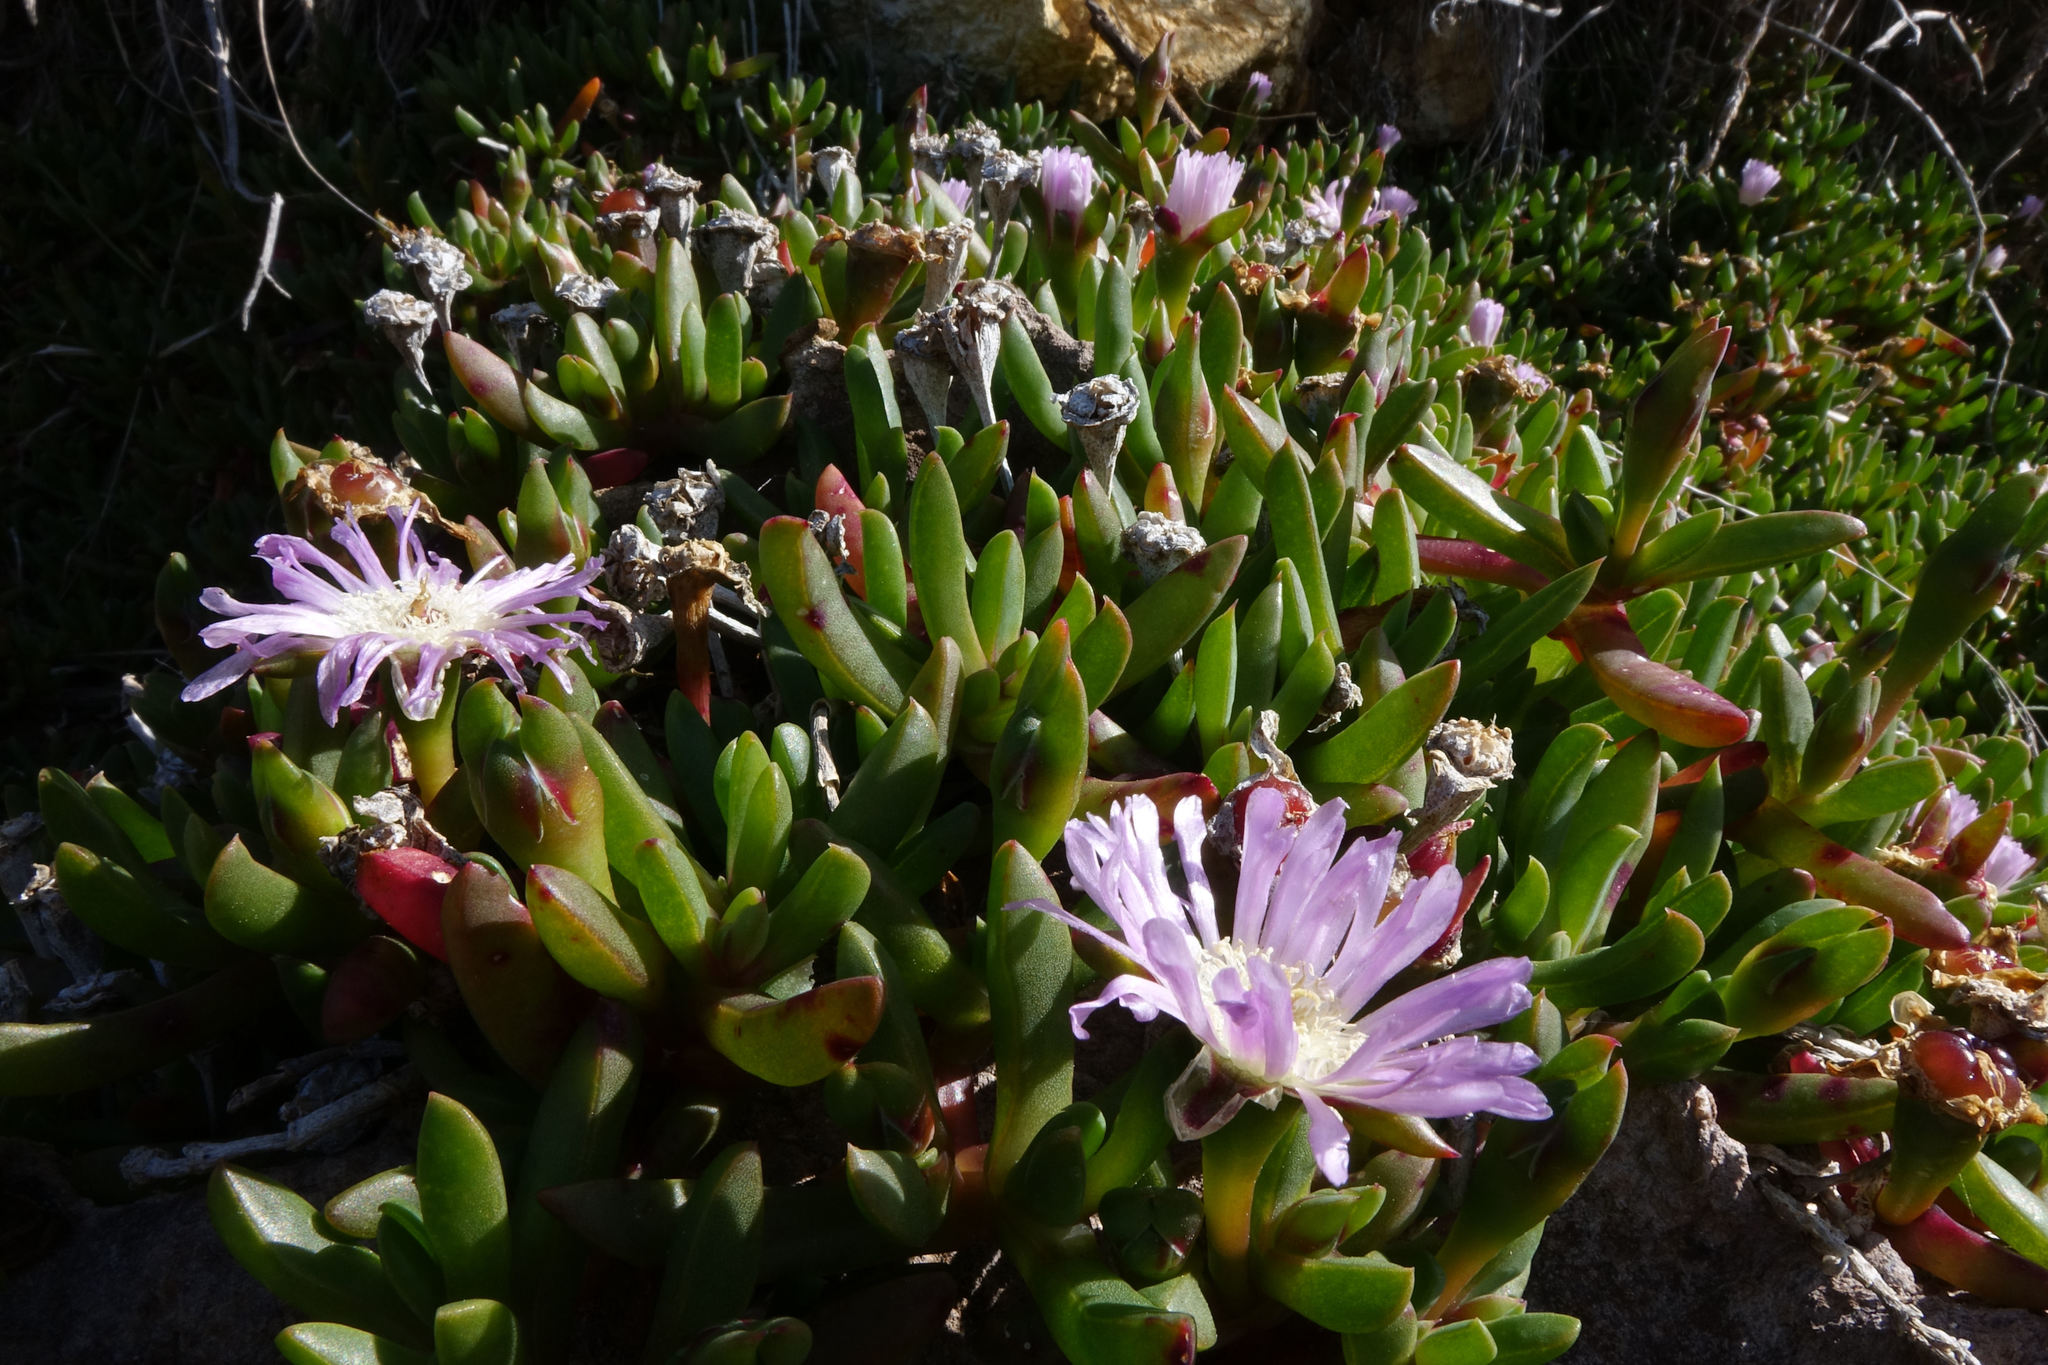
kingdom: Plantae
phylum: Tracheophyta
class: Magnoliopsida
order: Caryophyllales
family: Aizoaceae
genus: Disphyma
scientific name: Disphyma australe
